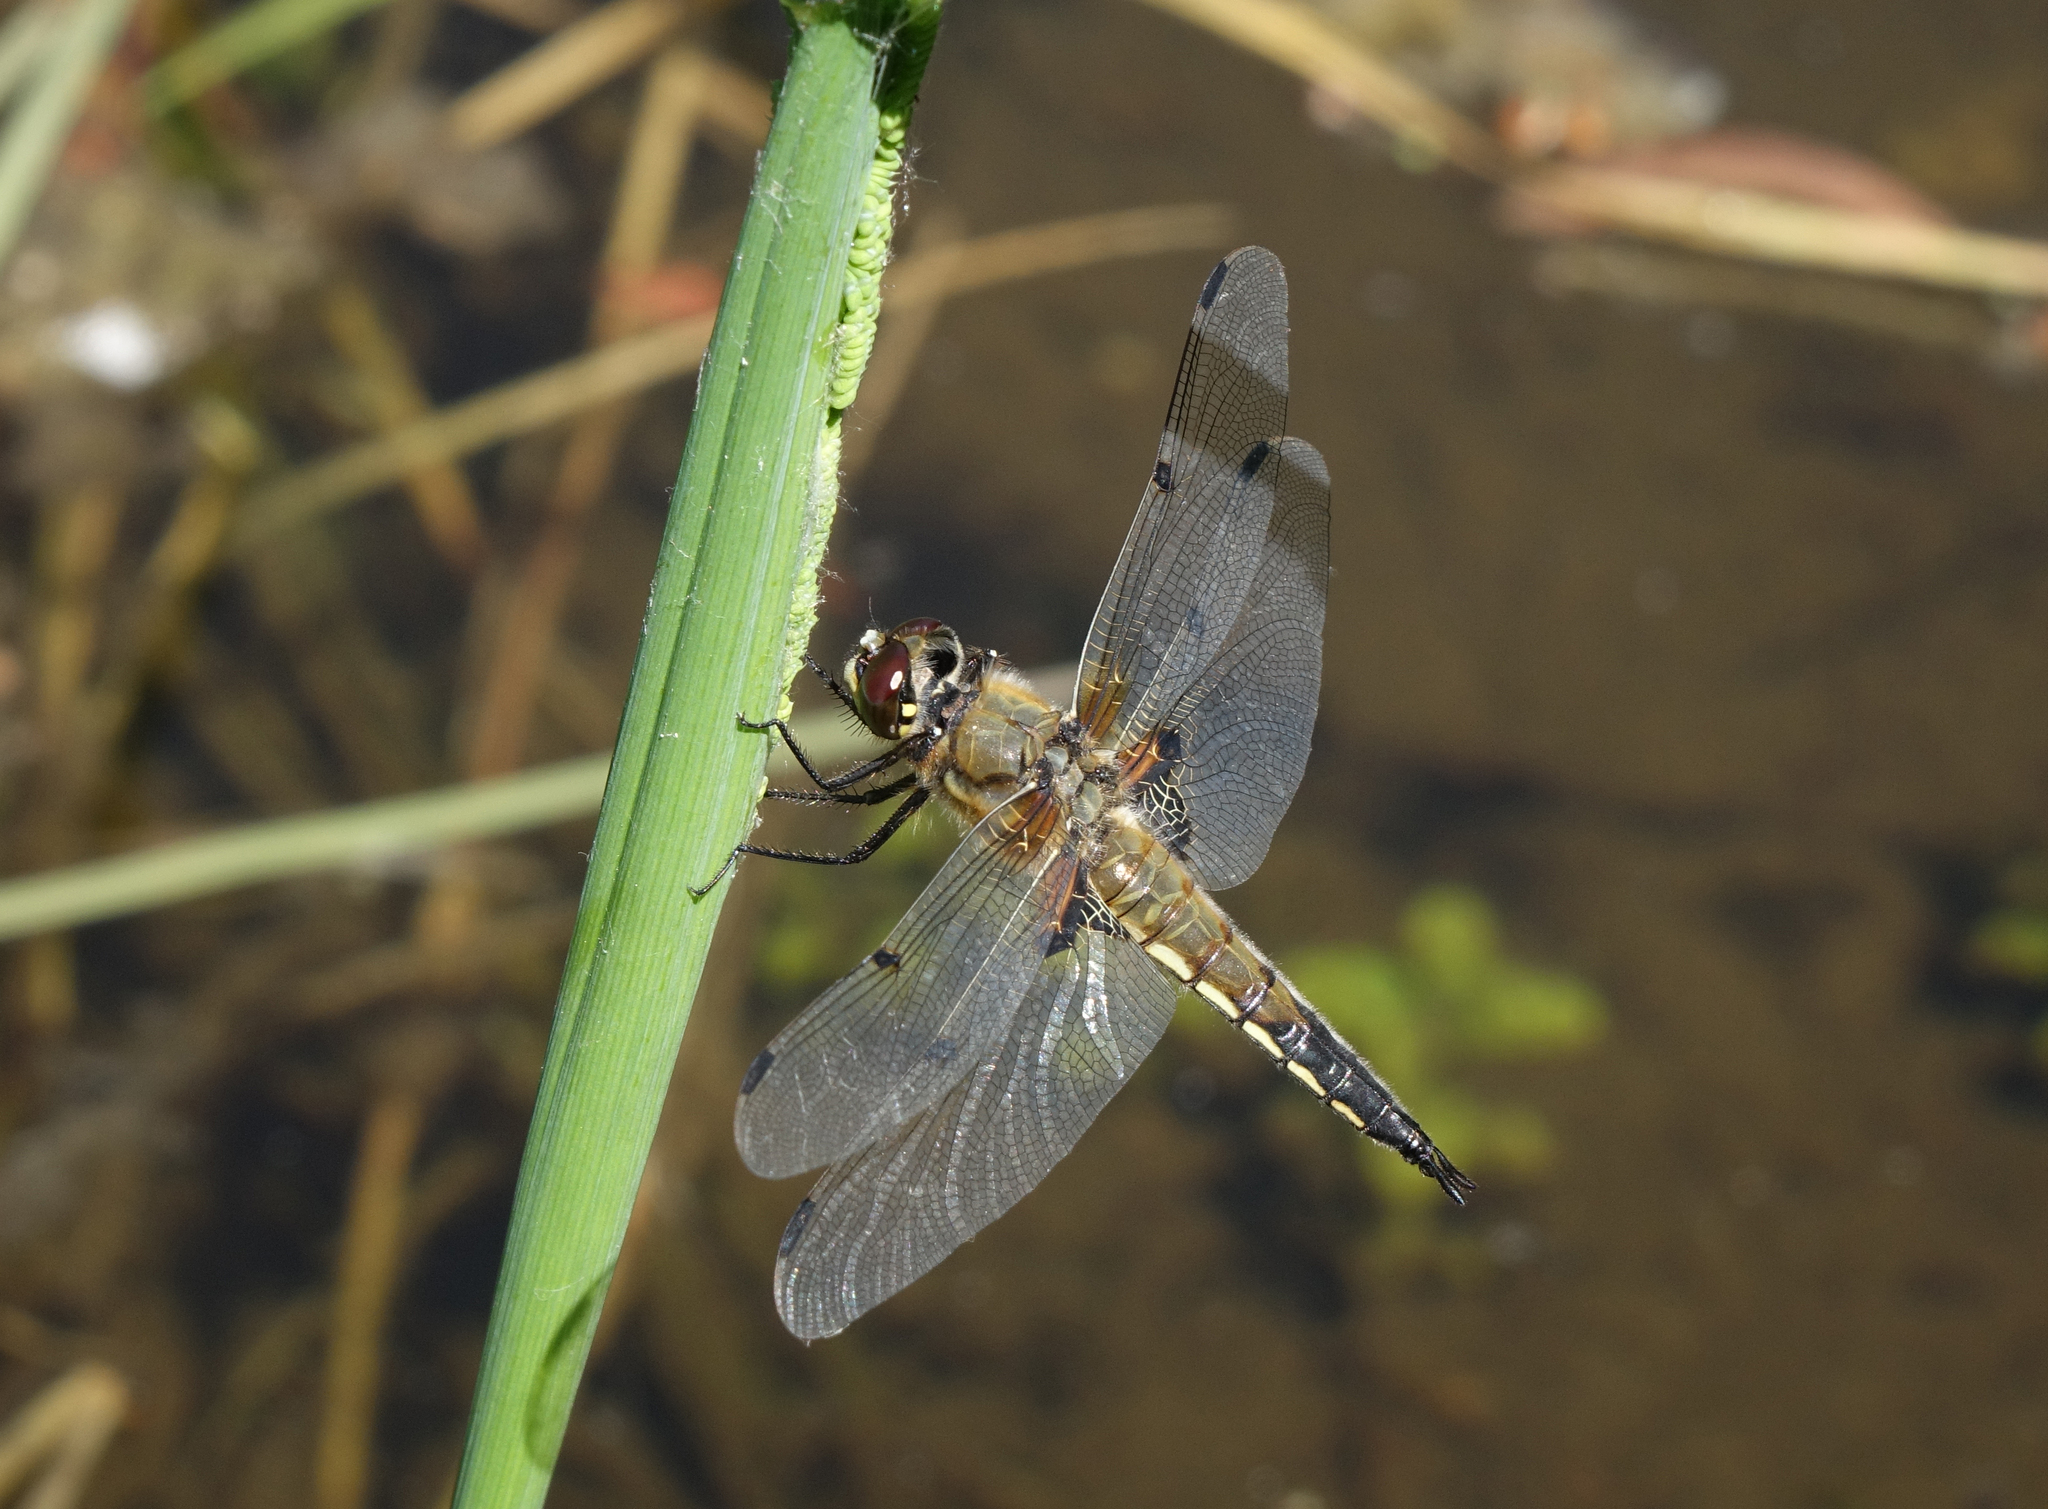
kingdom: Animalia
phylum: Arthropoda
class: Insecta
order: Odonata
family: Libellulidae
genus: Libellula
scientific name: Libellula quadrimaculata
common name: Four-spotted chaser
